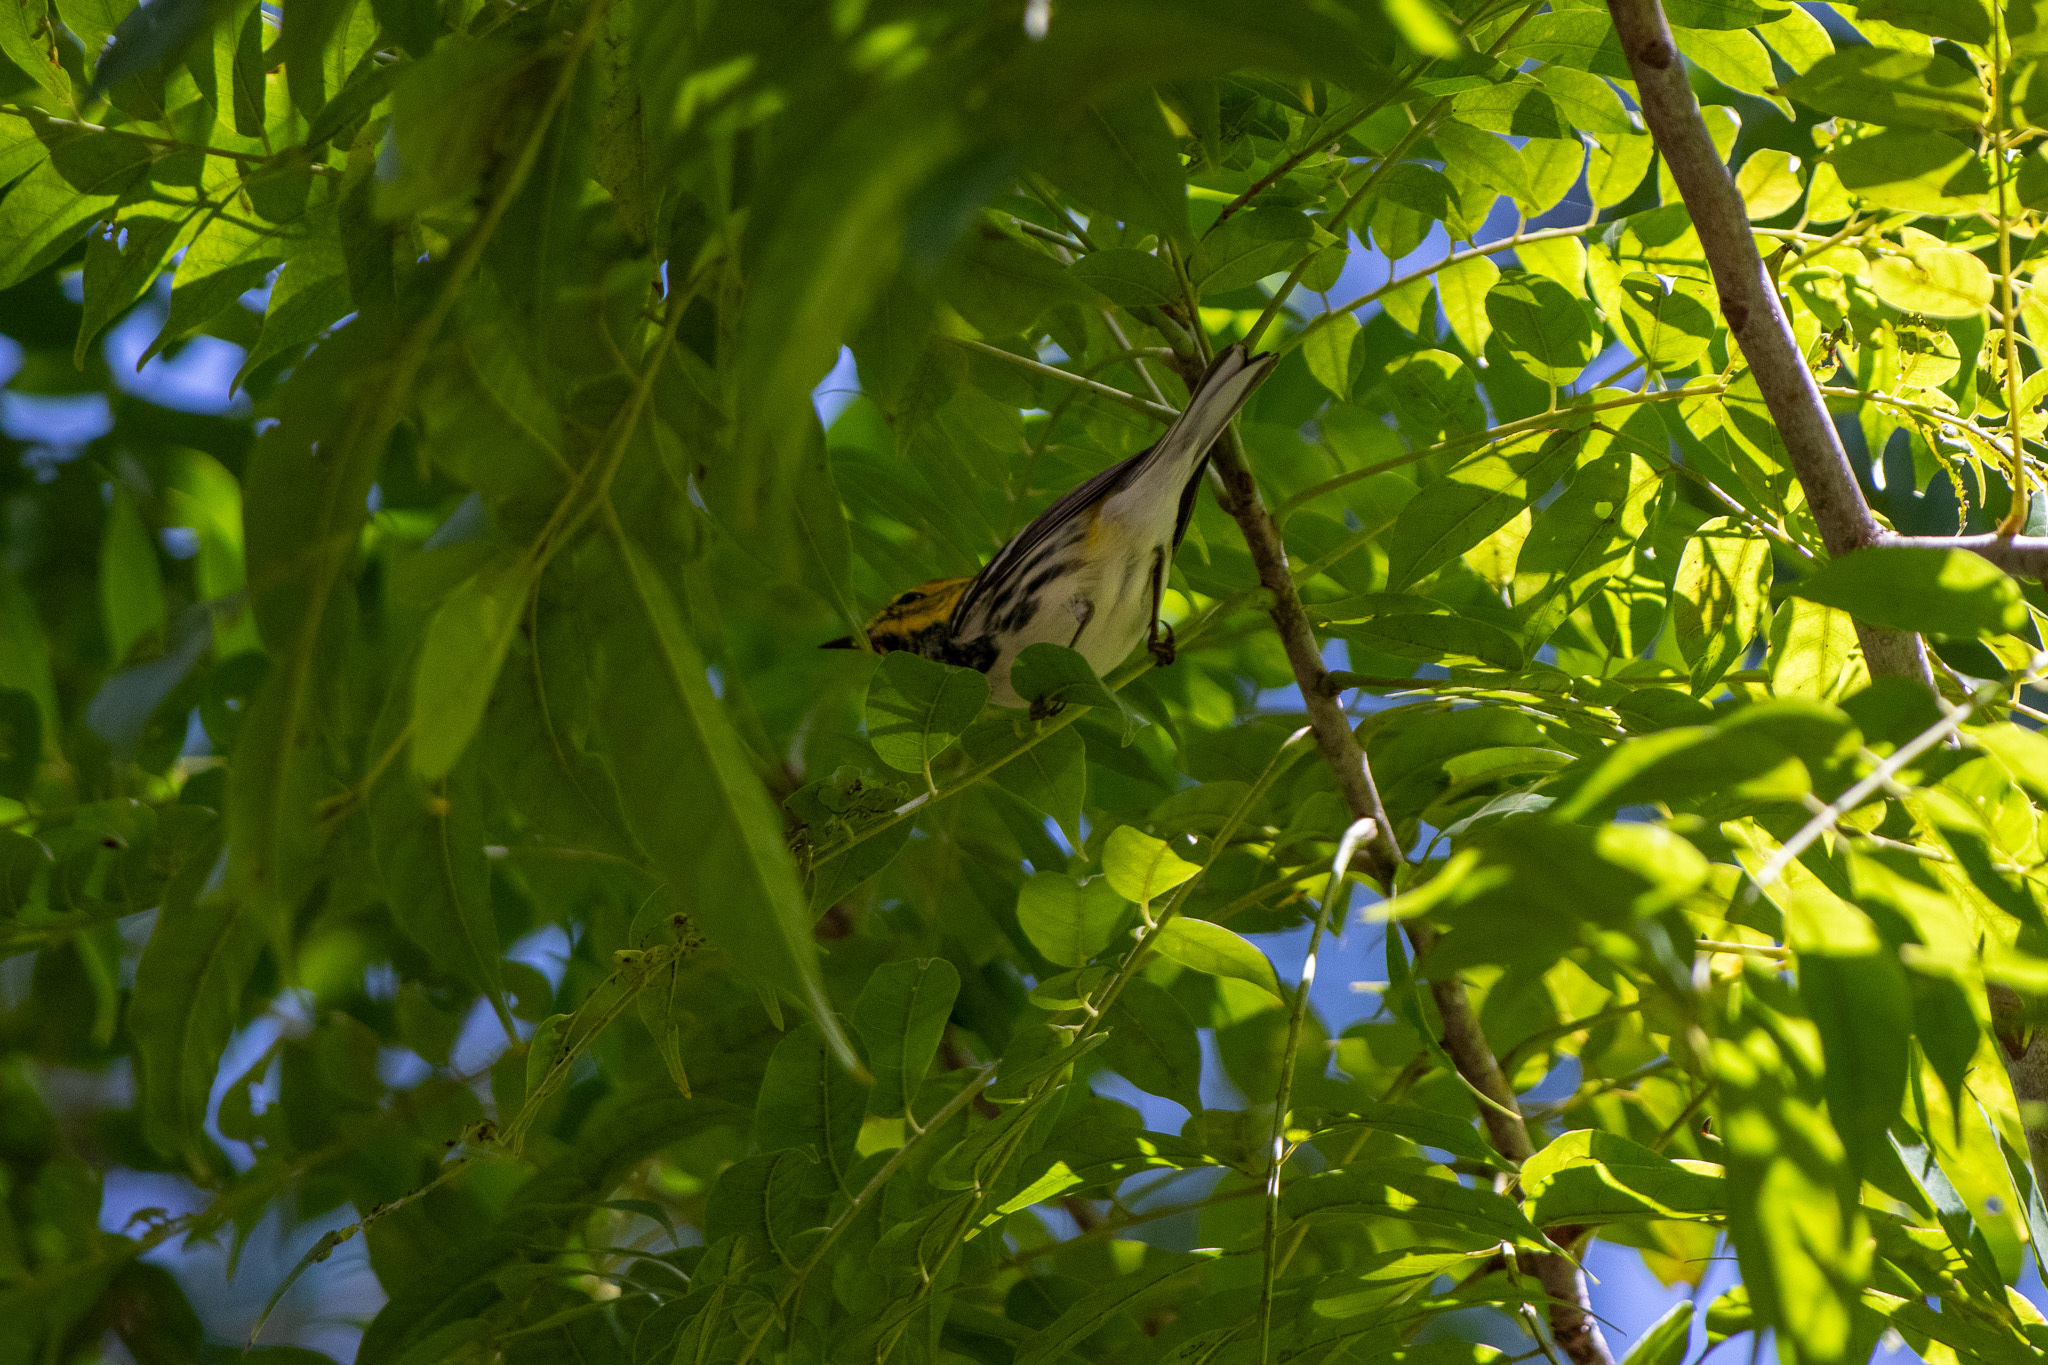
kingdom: Animalia
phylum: Chordata
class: Aves
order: Passeriformes
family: Parulidae
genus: Setophaga
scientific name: Setophaga virens
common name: Black-throated green warbler
